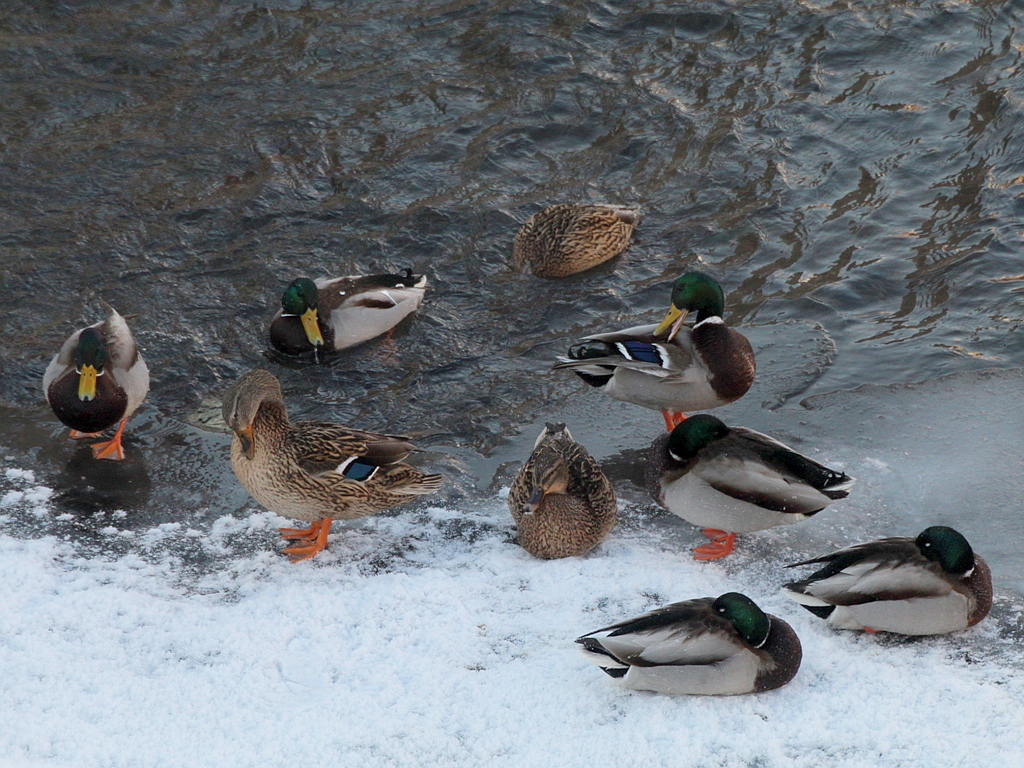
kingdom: Animalia
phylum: Chordata
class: Aves
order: Anseriformes
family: Anatidae
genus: Anas
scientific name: Anas platyrhynchos
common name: Mallard
